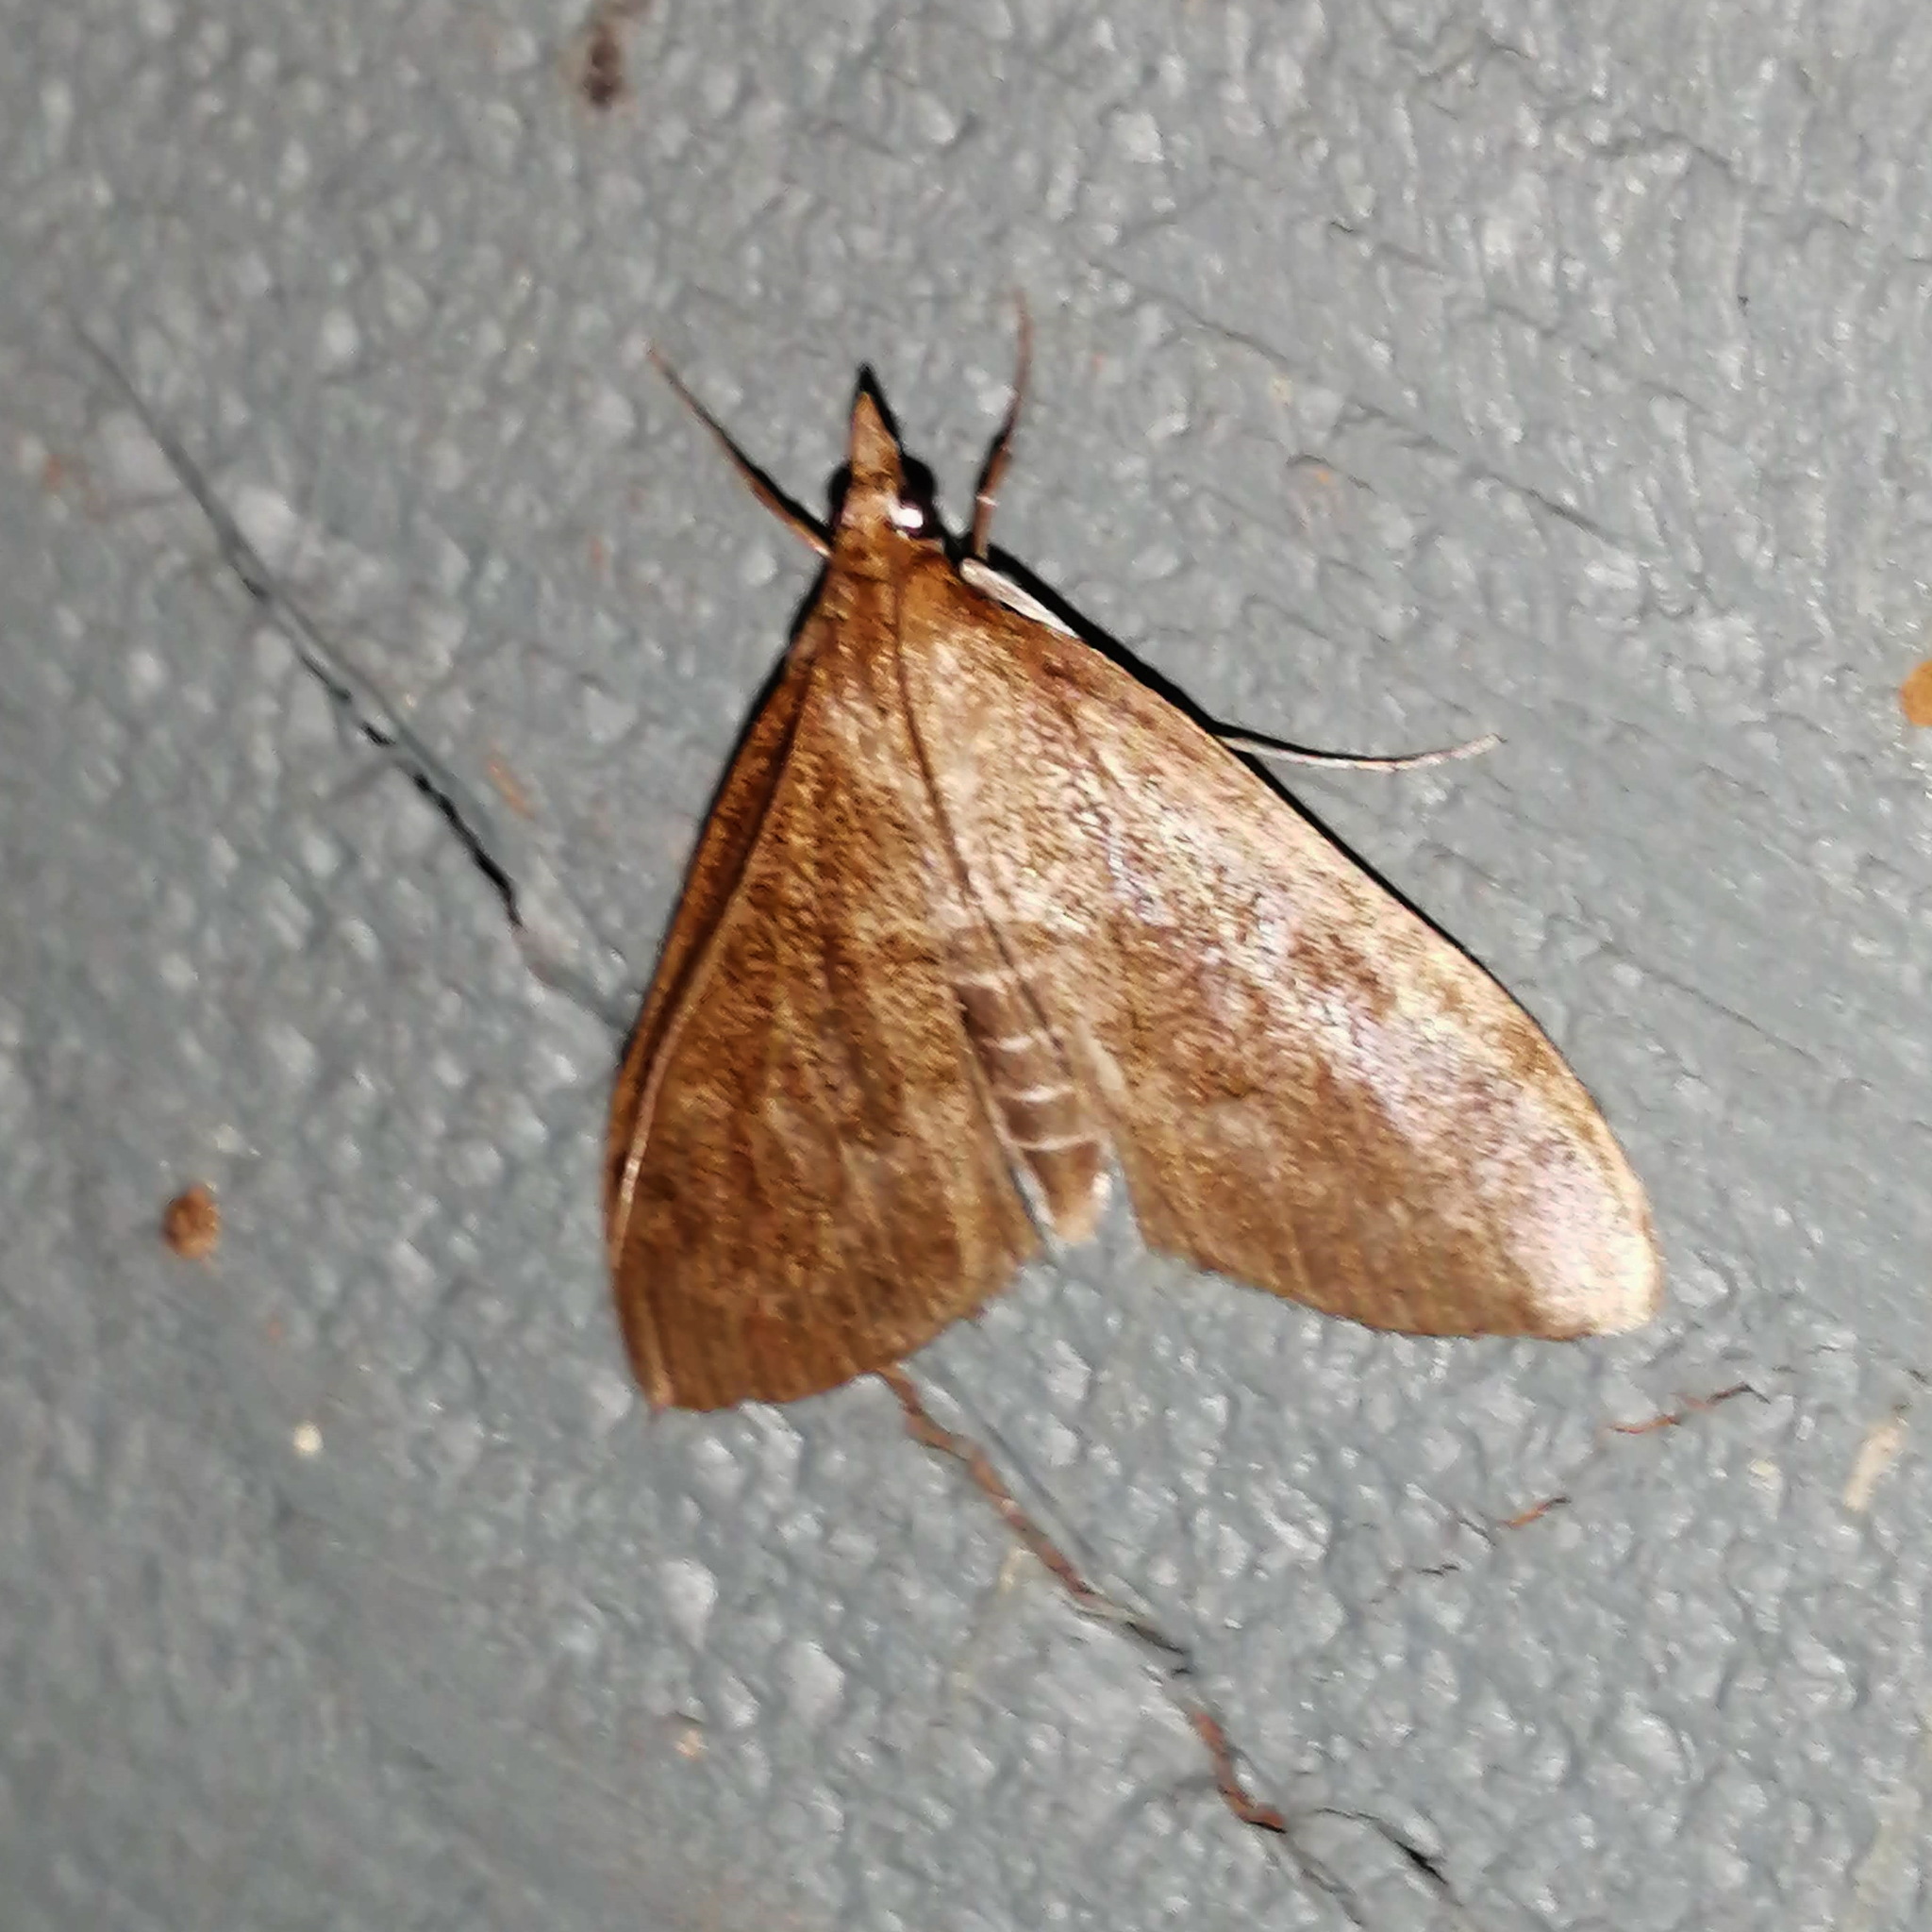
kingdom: Animalia
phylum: Arthropoda
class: Insecta
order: Lepidoptera
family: Crambidae
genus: Saucrobotys
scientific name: Saucrobotys futilalis
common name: Dogbane saucrobotys moth
